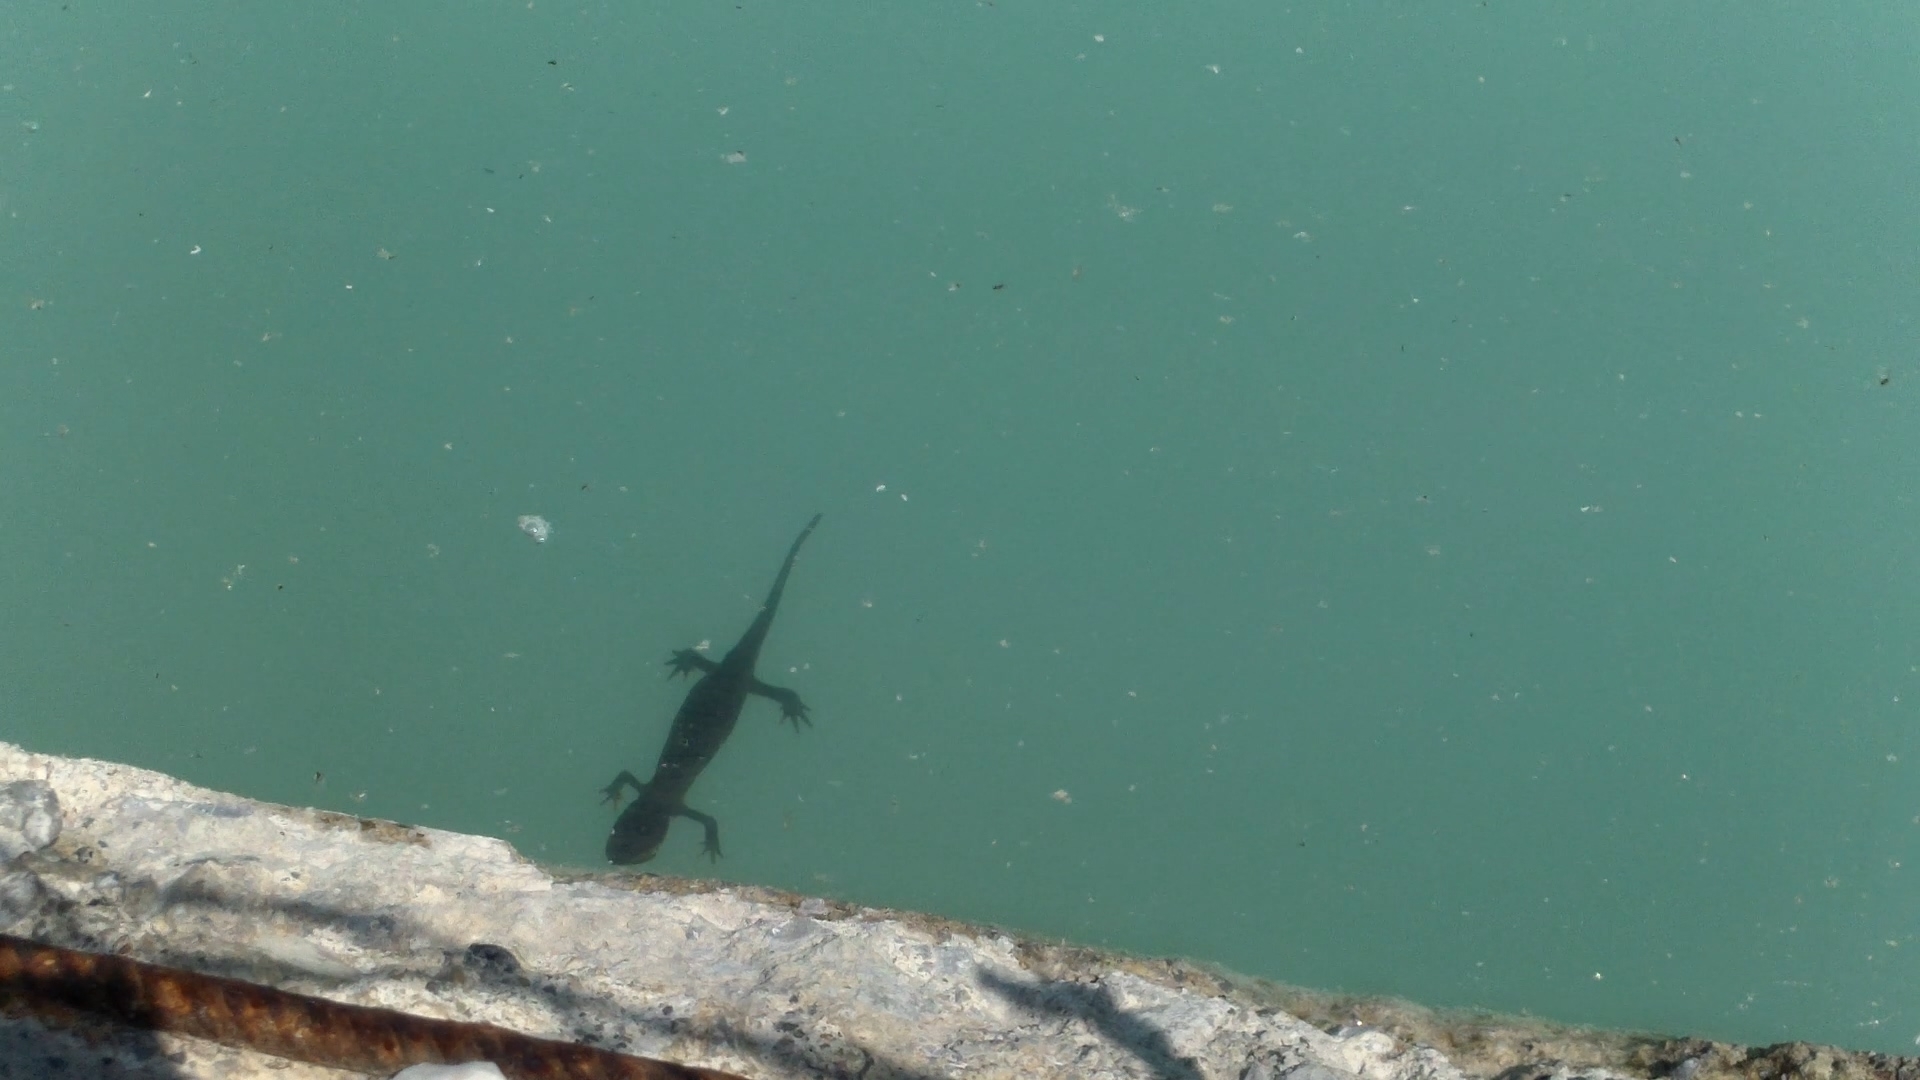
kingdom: Animalia
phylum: Chordata
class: Amphibia
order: Caudata
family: Salamandridae
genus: Triturus
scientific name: Triturus carnifex
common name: Italian crested newt
